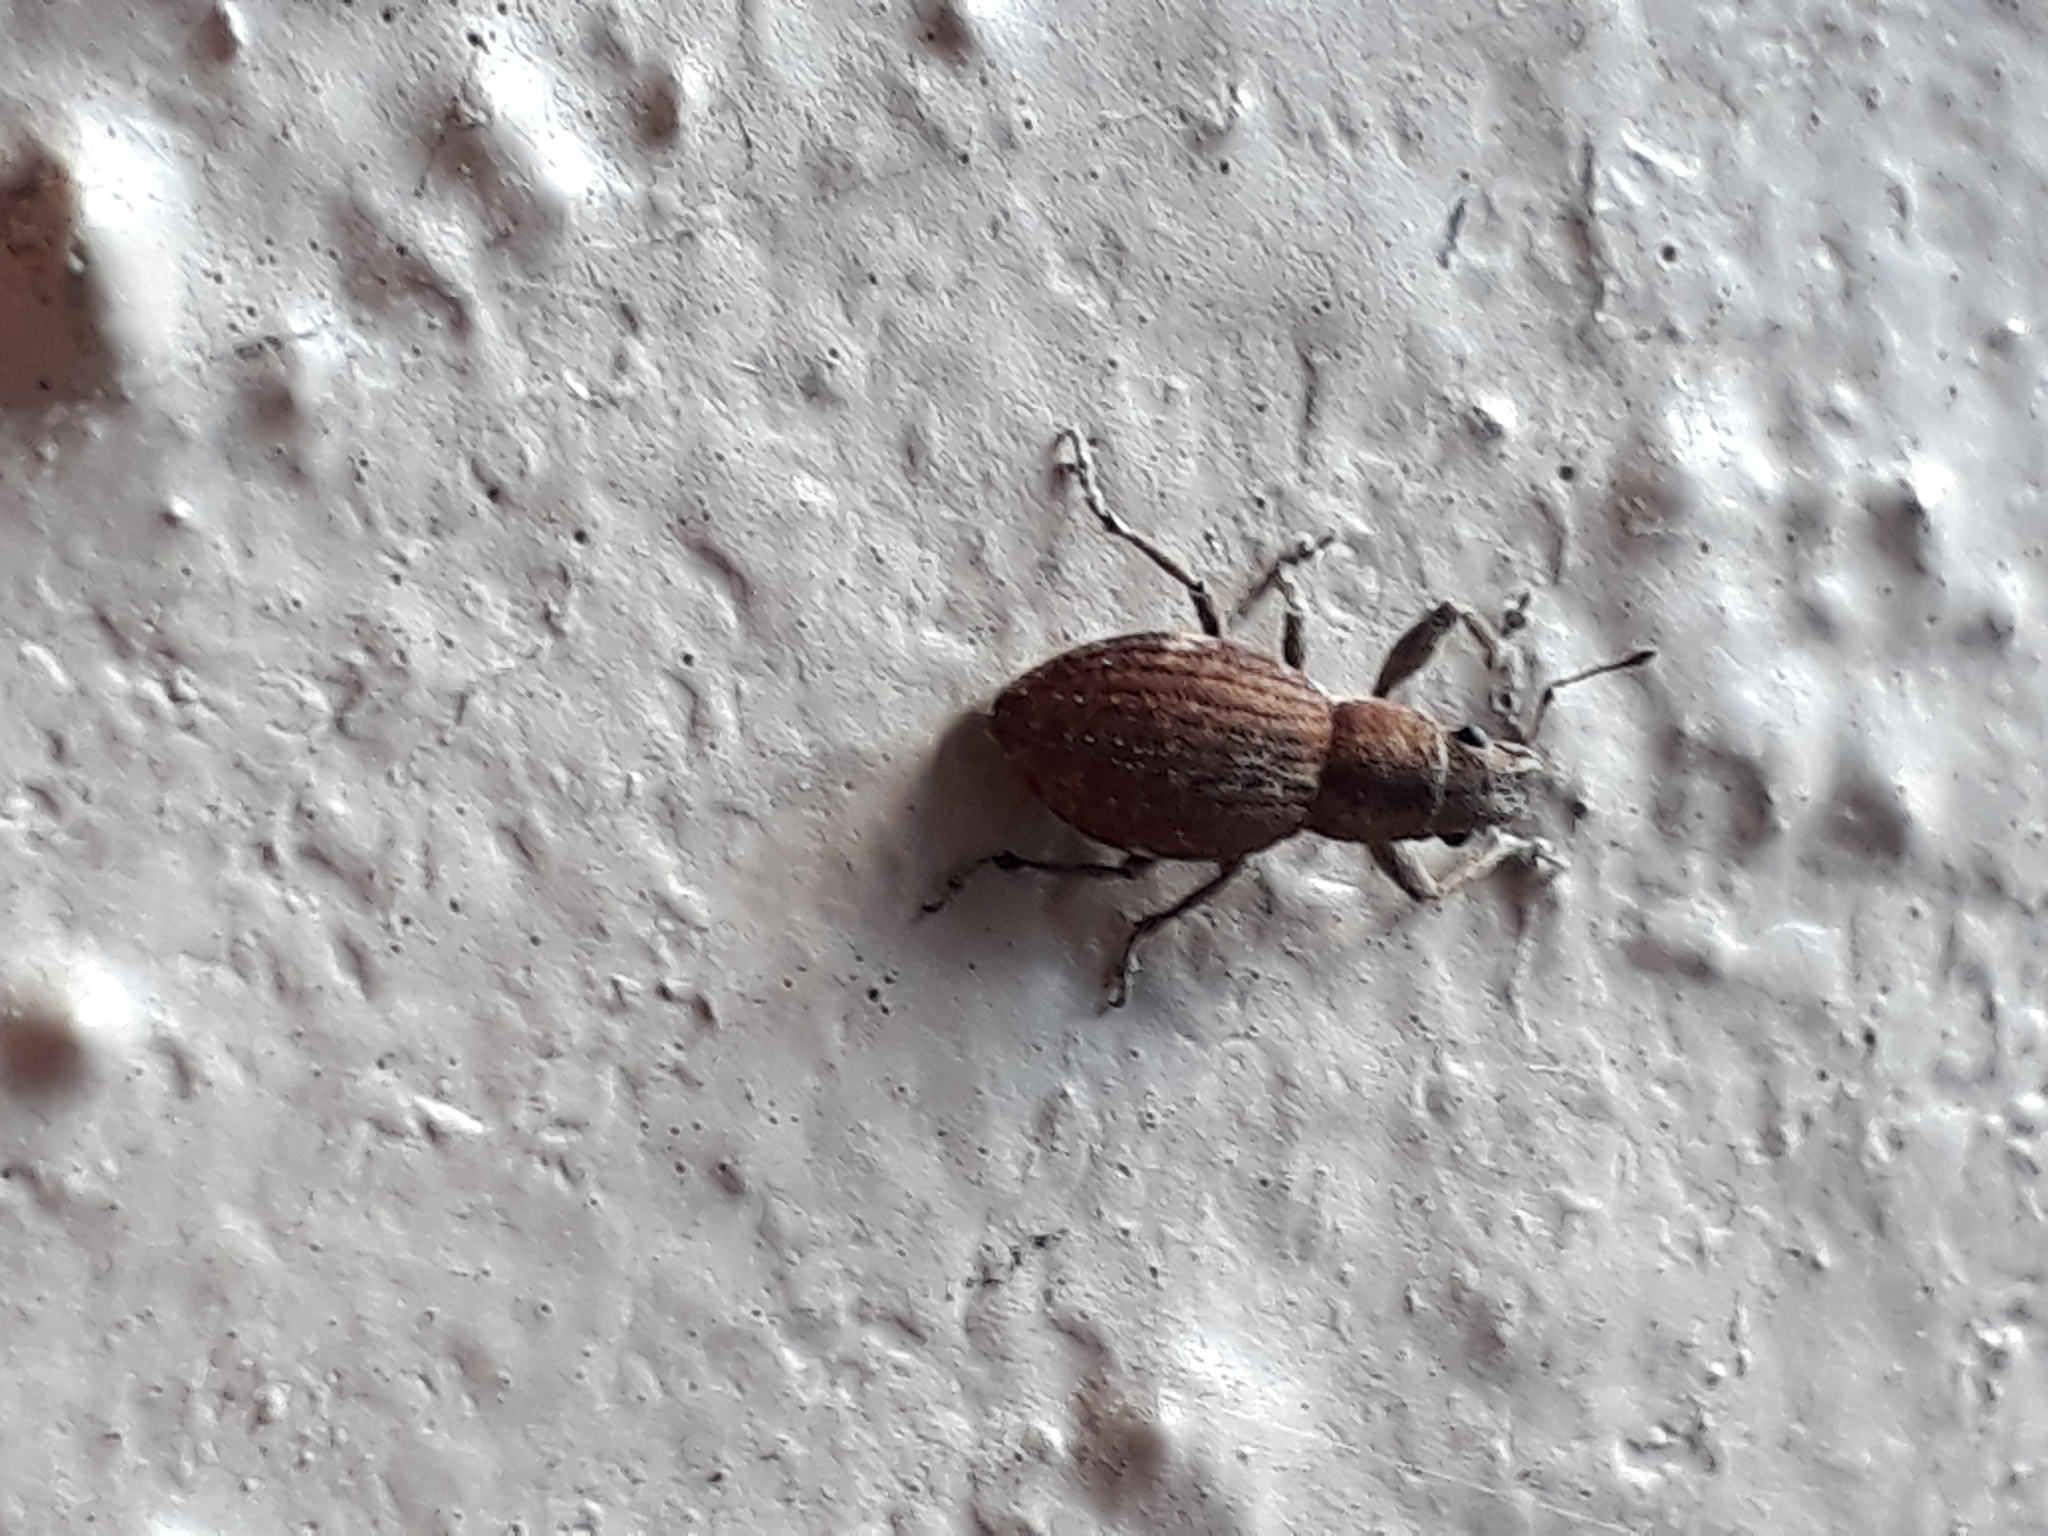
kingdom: Animalia
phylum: Arthropoda
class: Insecta
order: Coleoptera
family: Curculionidae
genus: Naupactus
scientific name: Naupactus cervinus
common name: Fuller rose beetle
